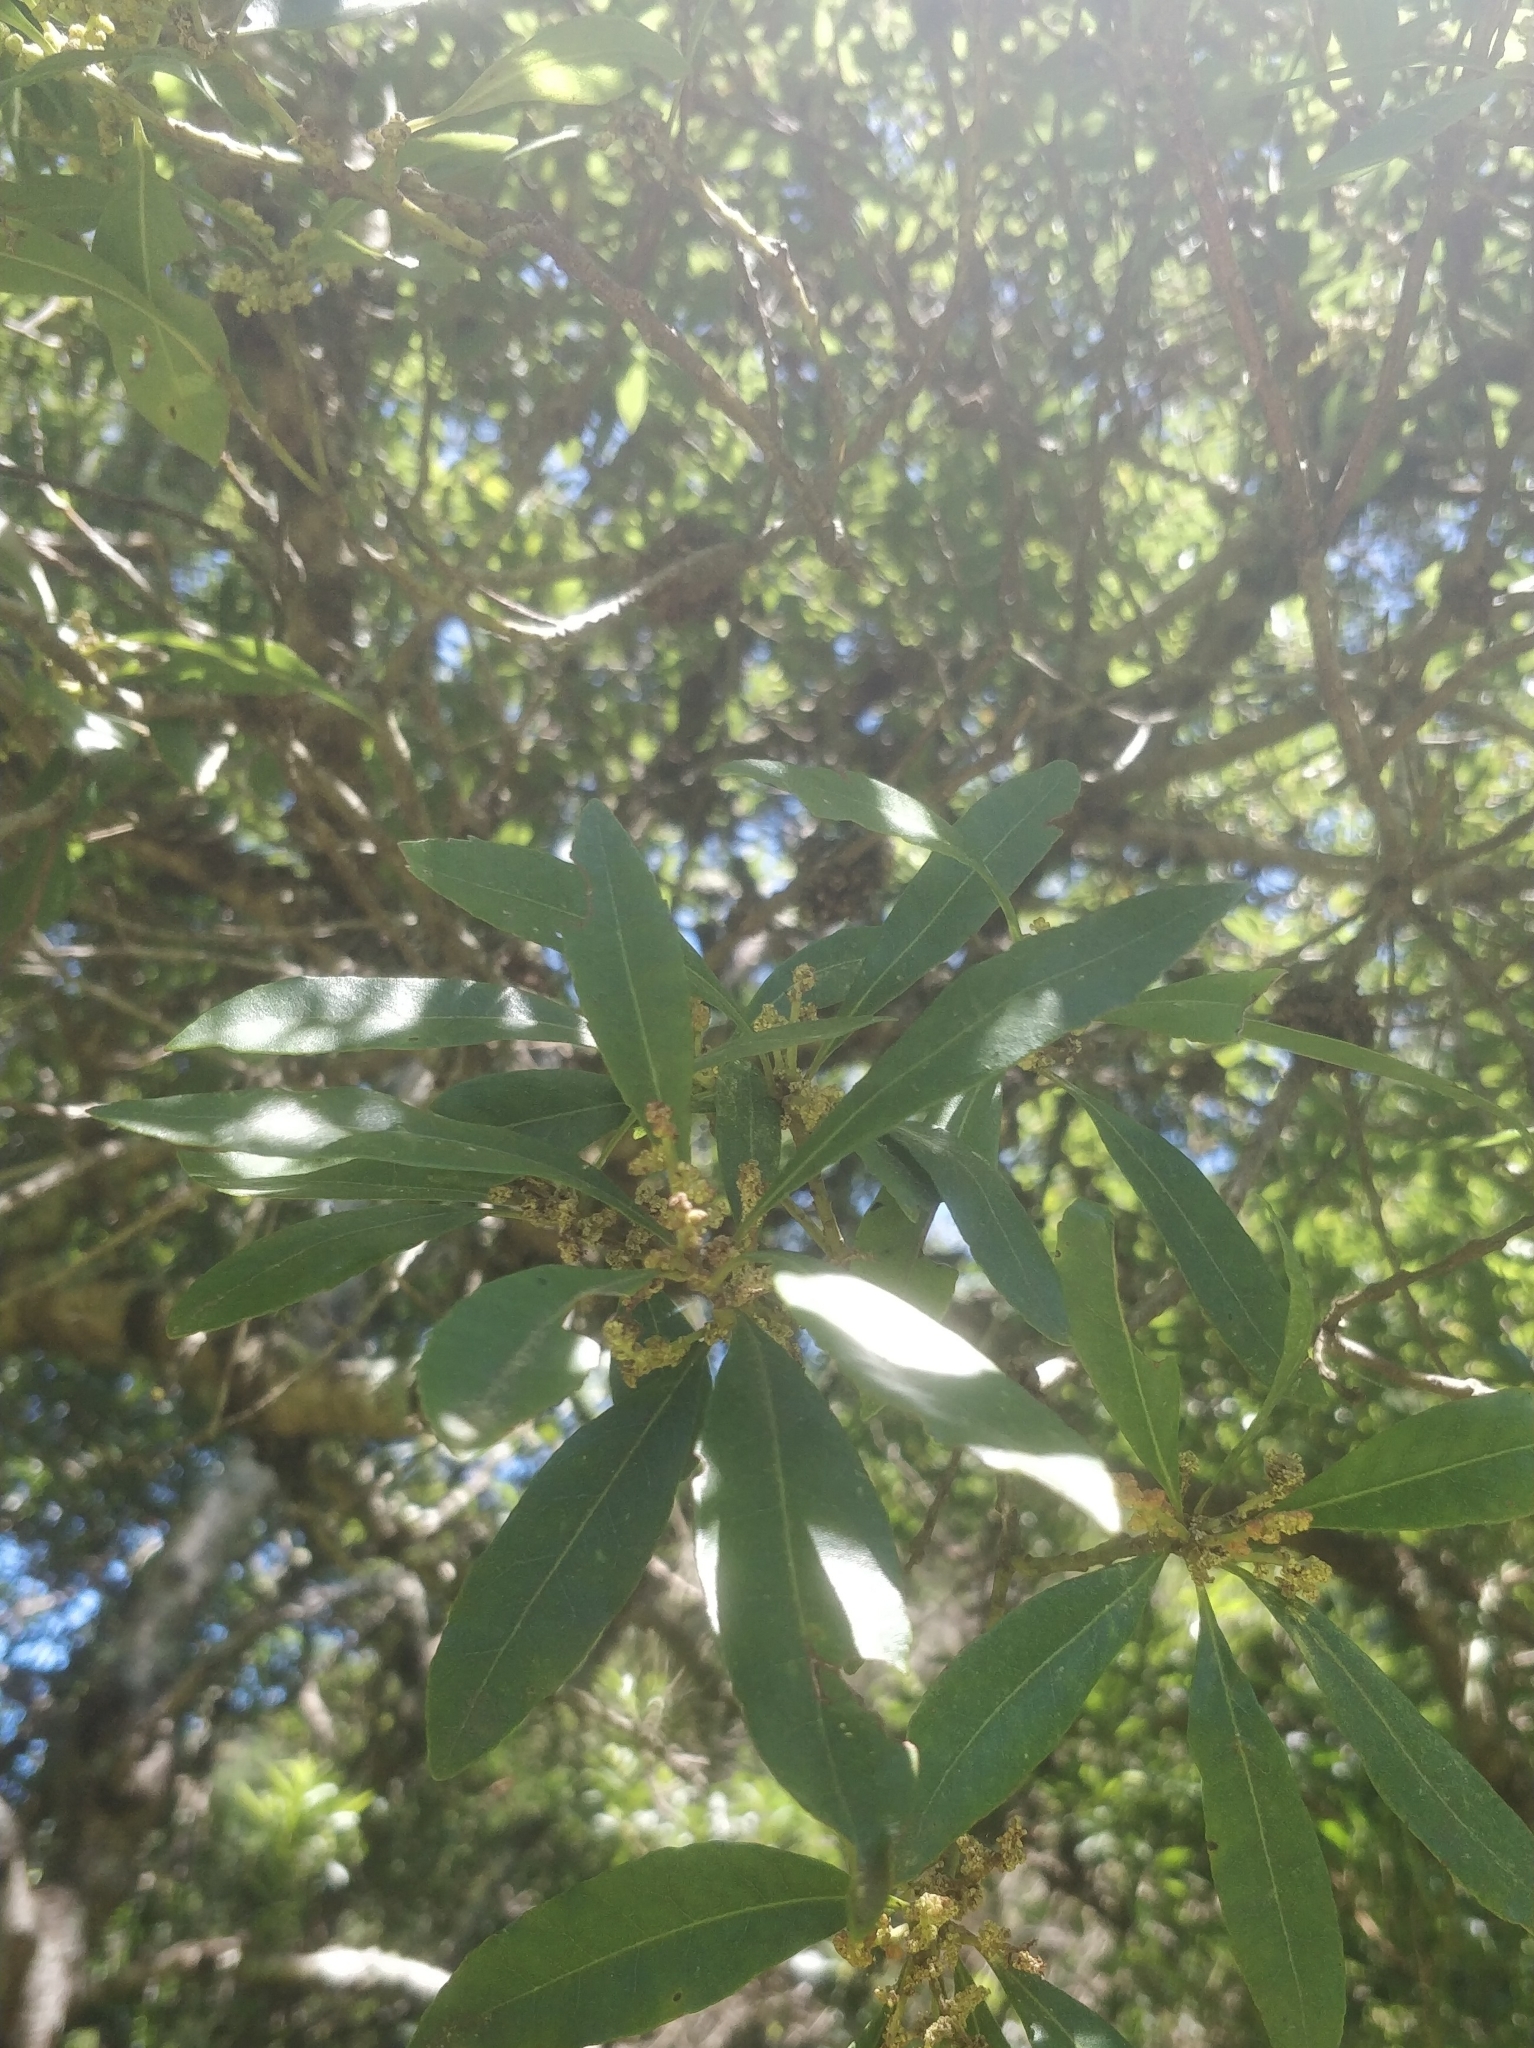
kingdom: Plantae
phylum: Tracheophyta
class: Magnoliopsida
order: Fagales
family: Myricaceae
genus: Morella
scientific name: Morella faya
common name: Firetree
